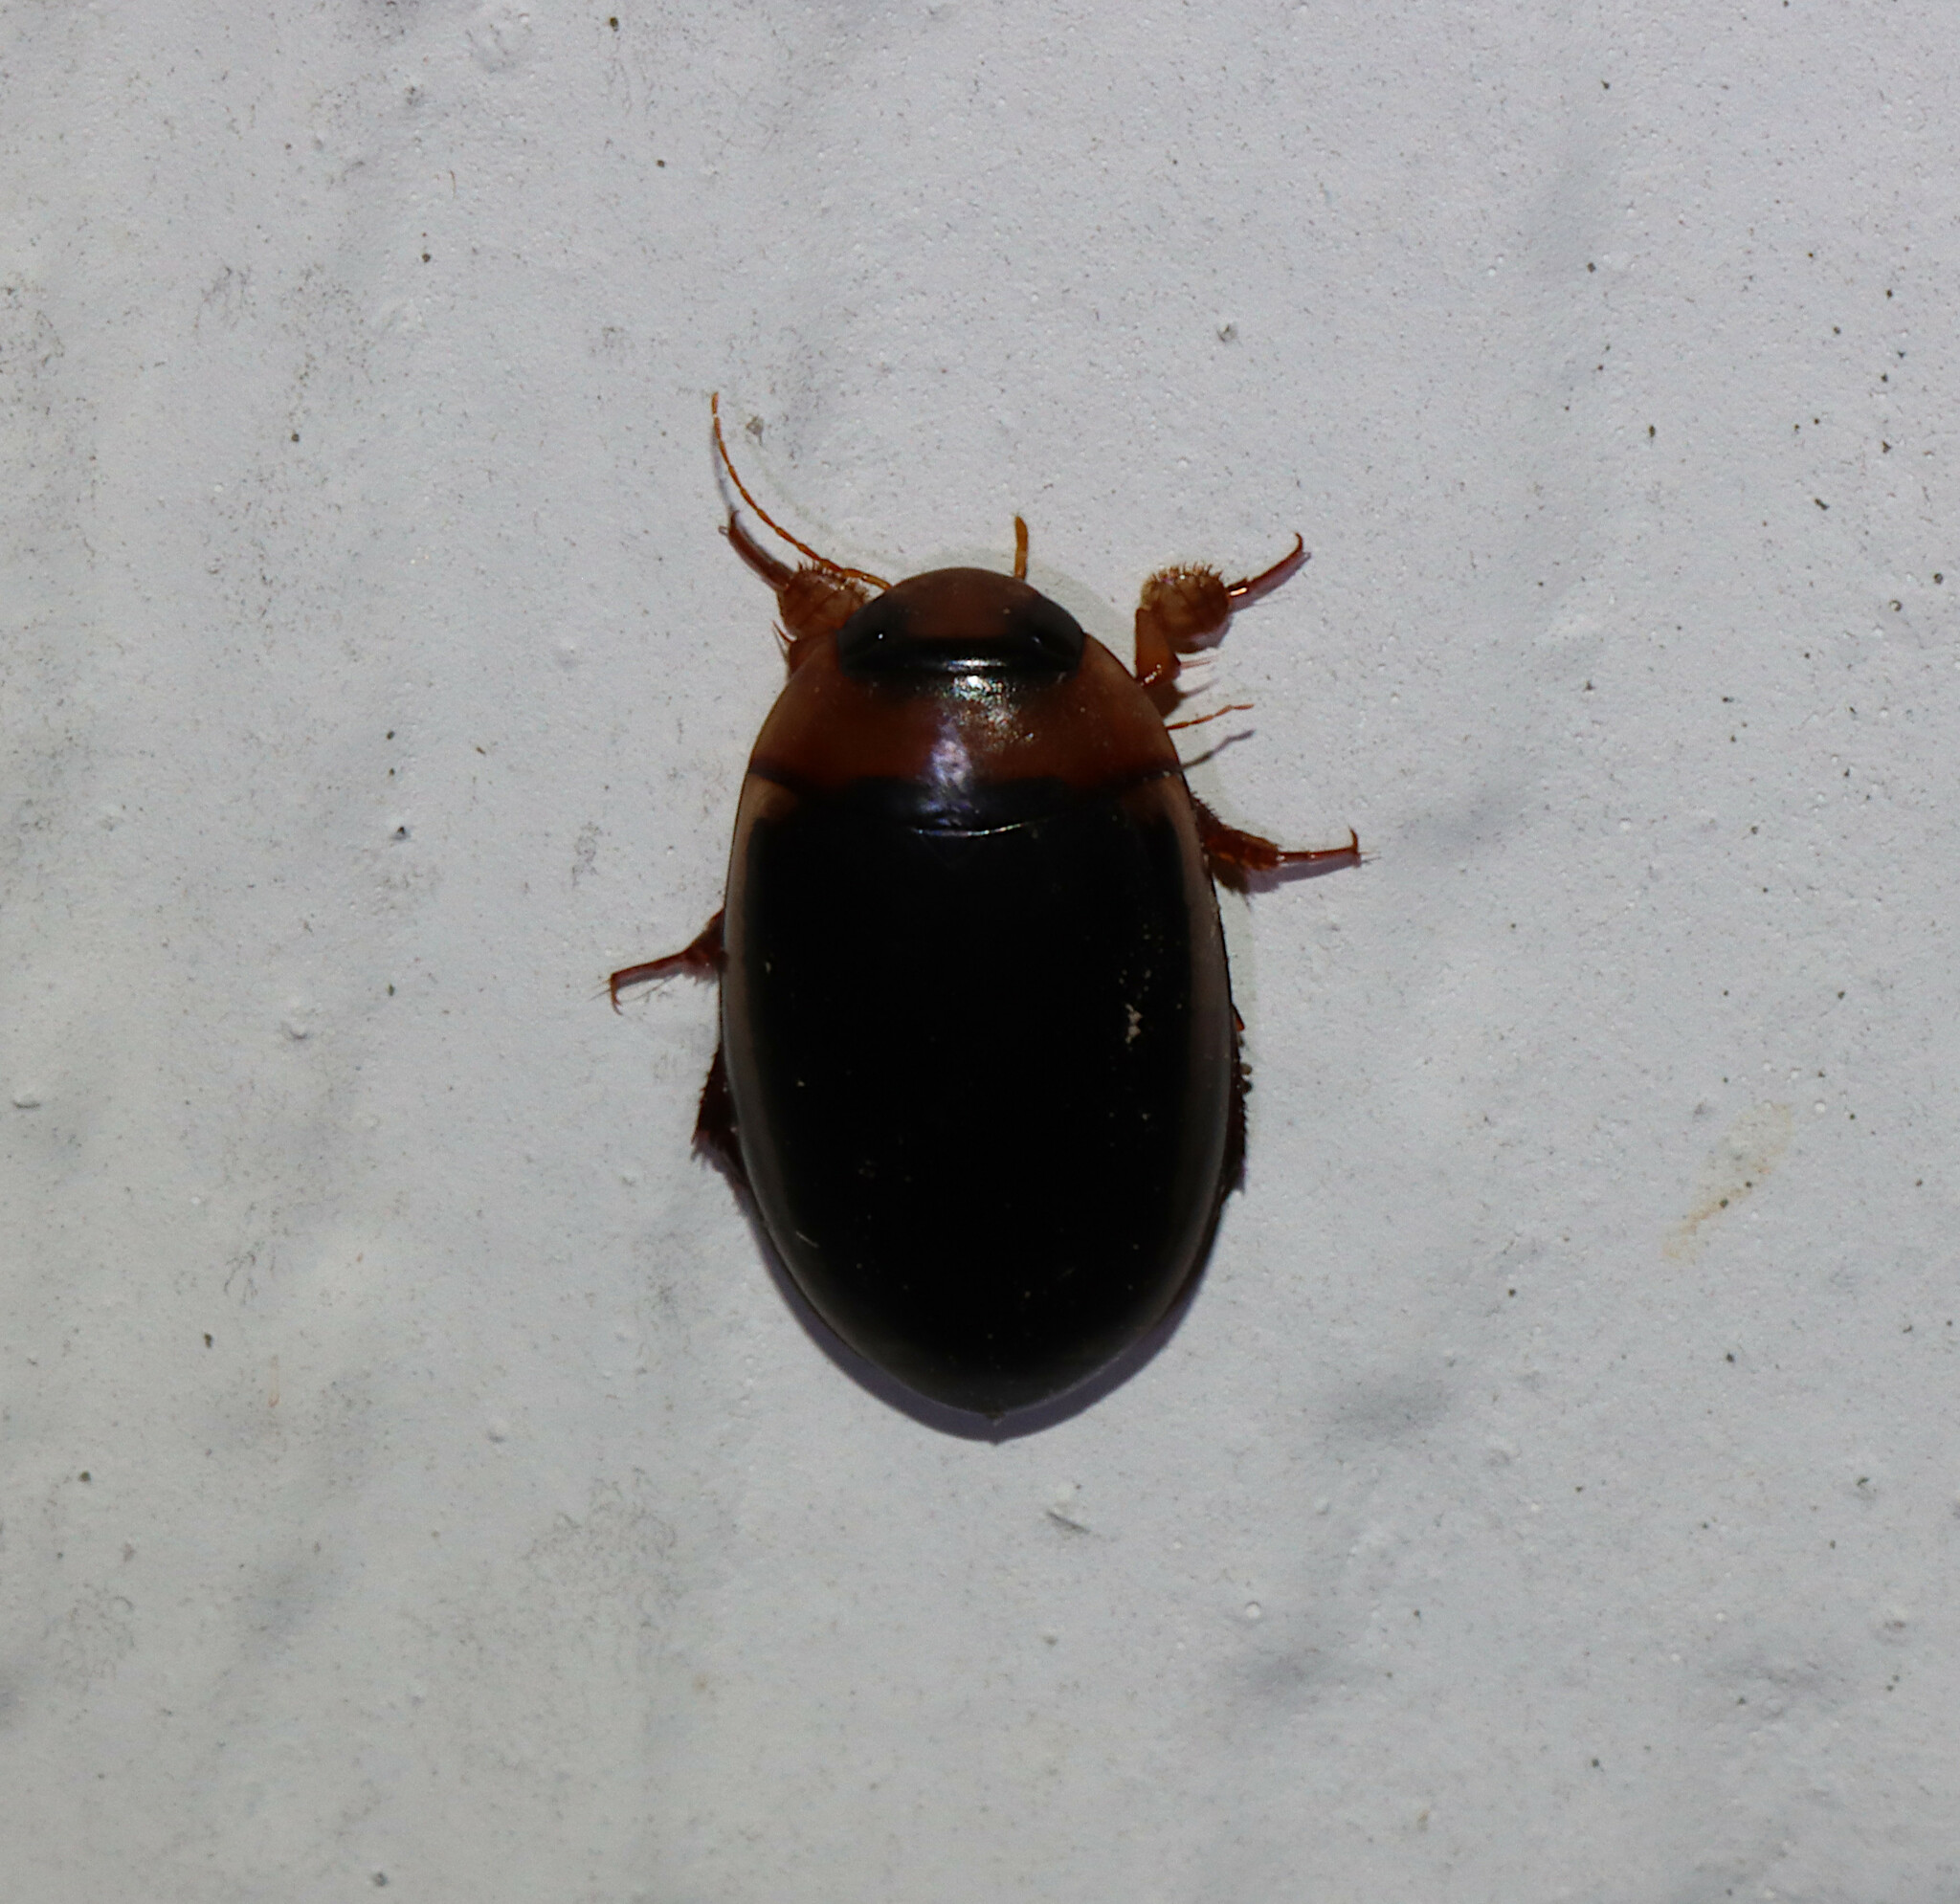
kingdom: Animalia
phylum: Arthropoda
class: Insecta
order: Coleoptera
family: Dytiscidae
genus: Hydaticus
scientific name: Hydaticus bimarginatus
